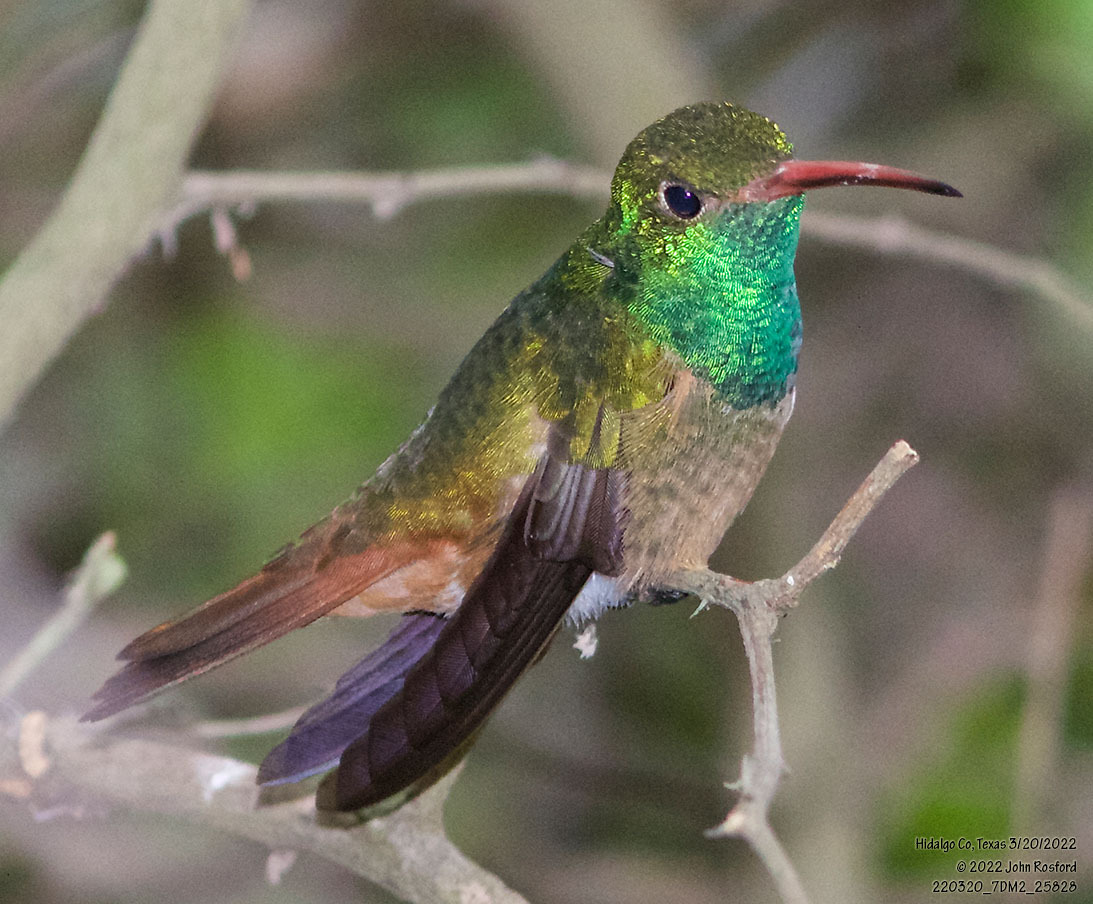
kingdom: Animalia
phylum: Chordata
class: Aves
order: Apodiformes
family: Trochilidae
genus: Amazilia
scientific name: Amazilia yucatanensis
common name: Buff-bellied hummingbird
